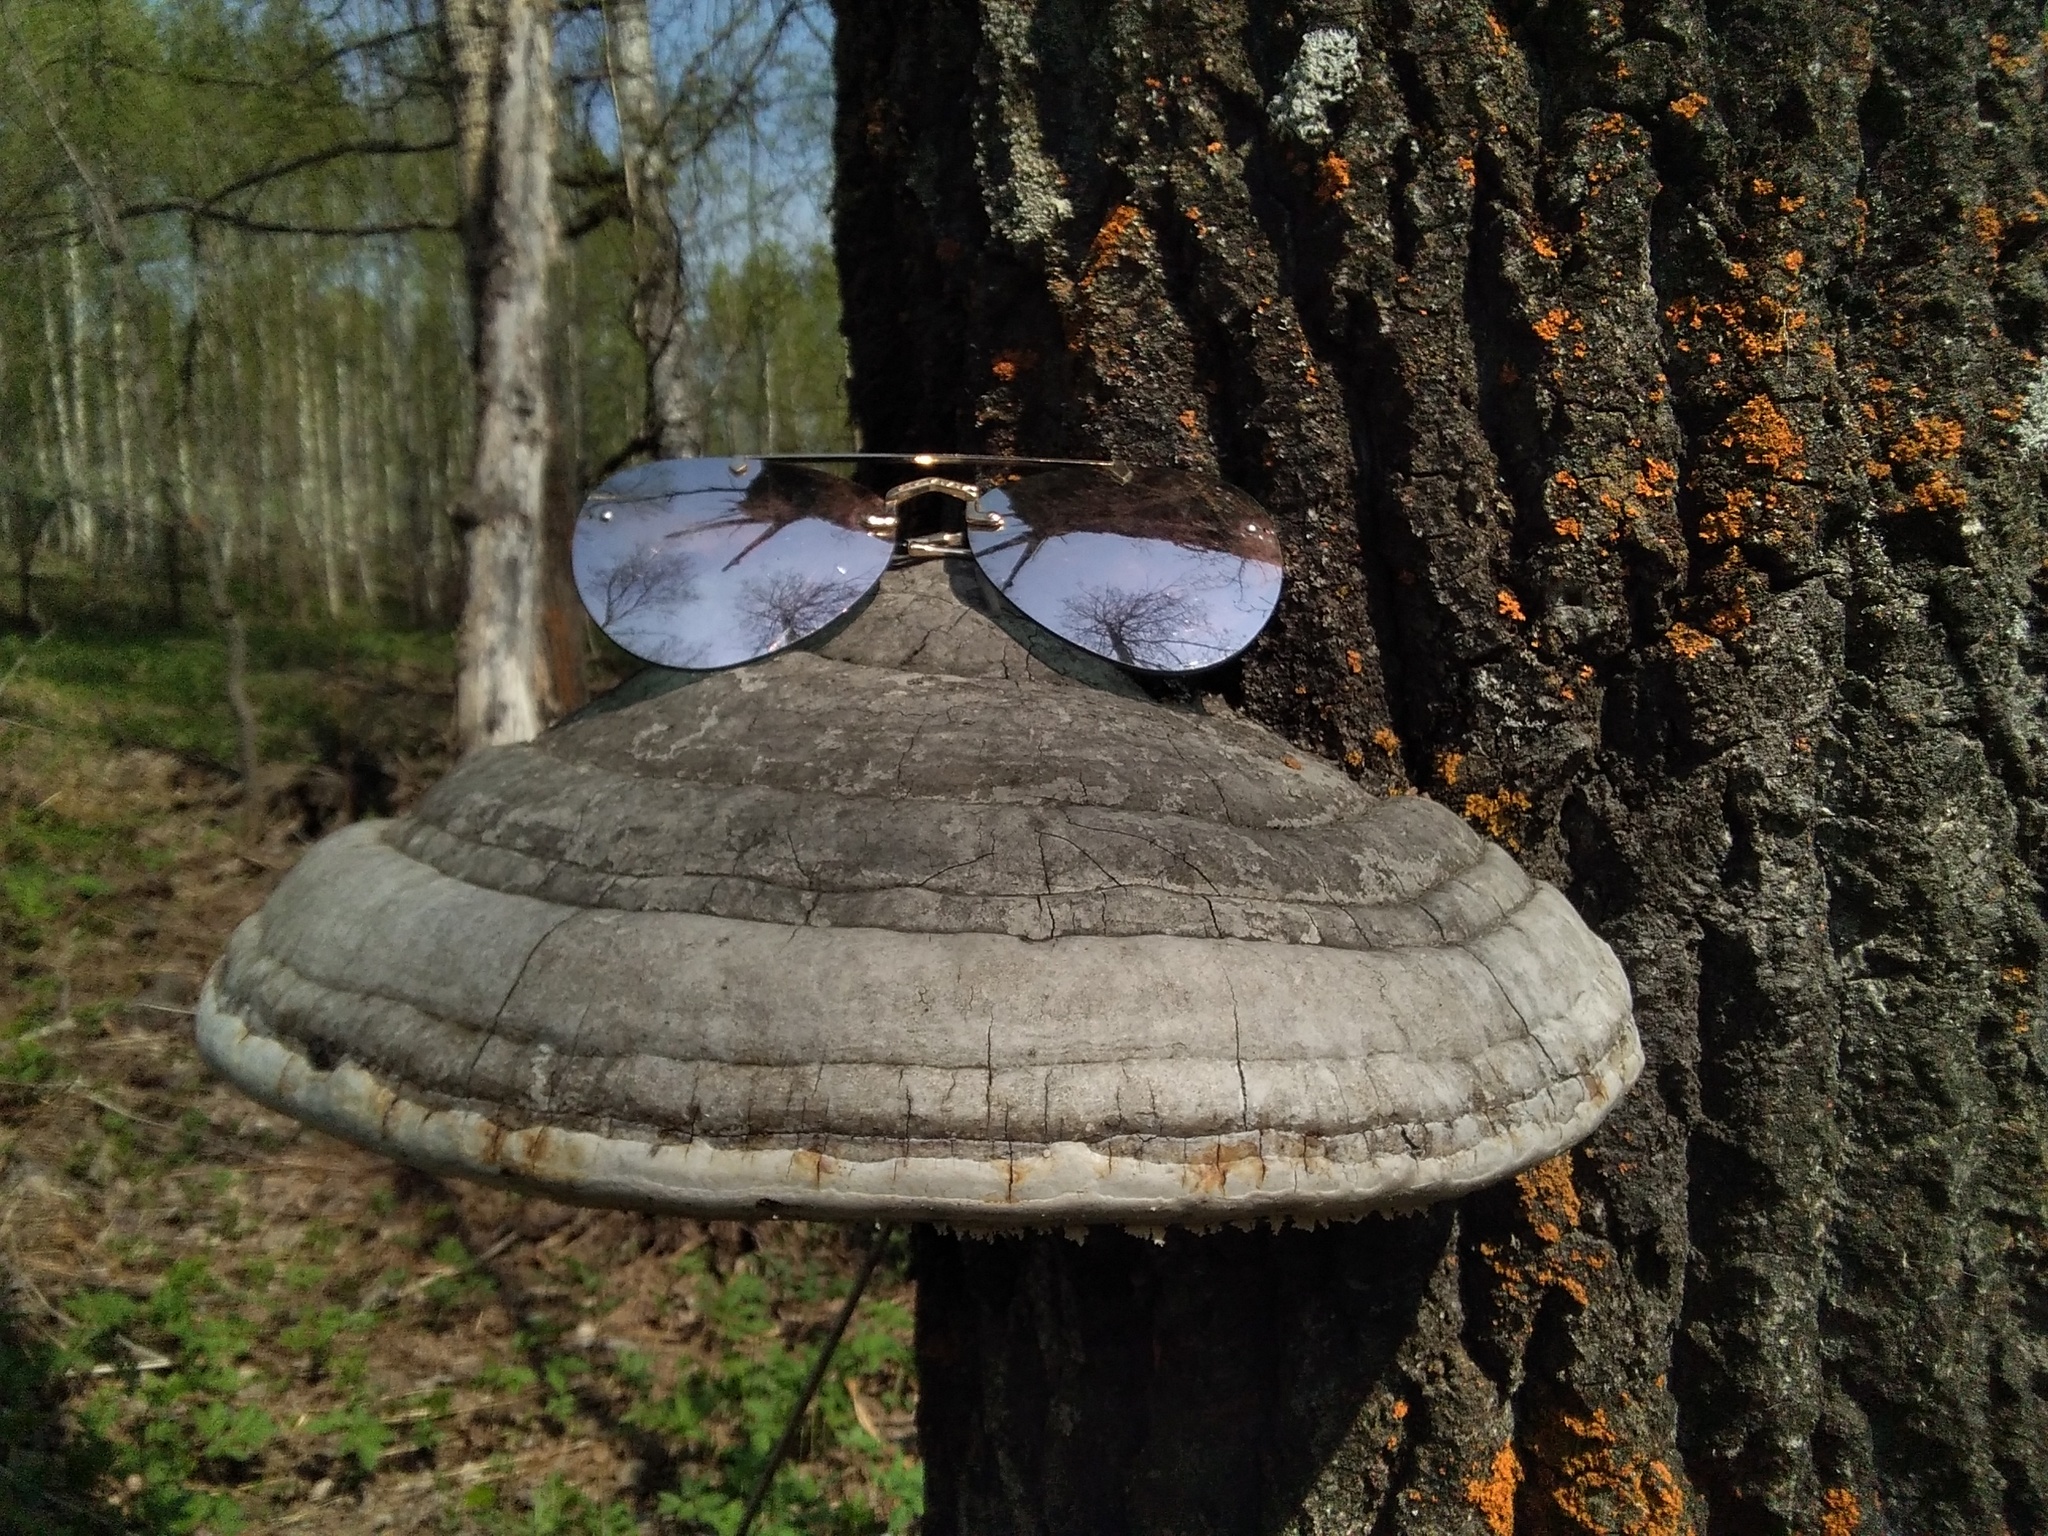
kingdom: Fungi
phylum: Basidiomycota
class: Agaricomycetes
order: Polyporales
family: Polyporaceae
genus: Fomes
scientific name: Fomes fomentarius
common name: Hoof fungus
